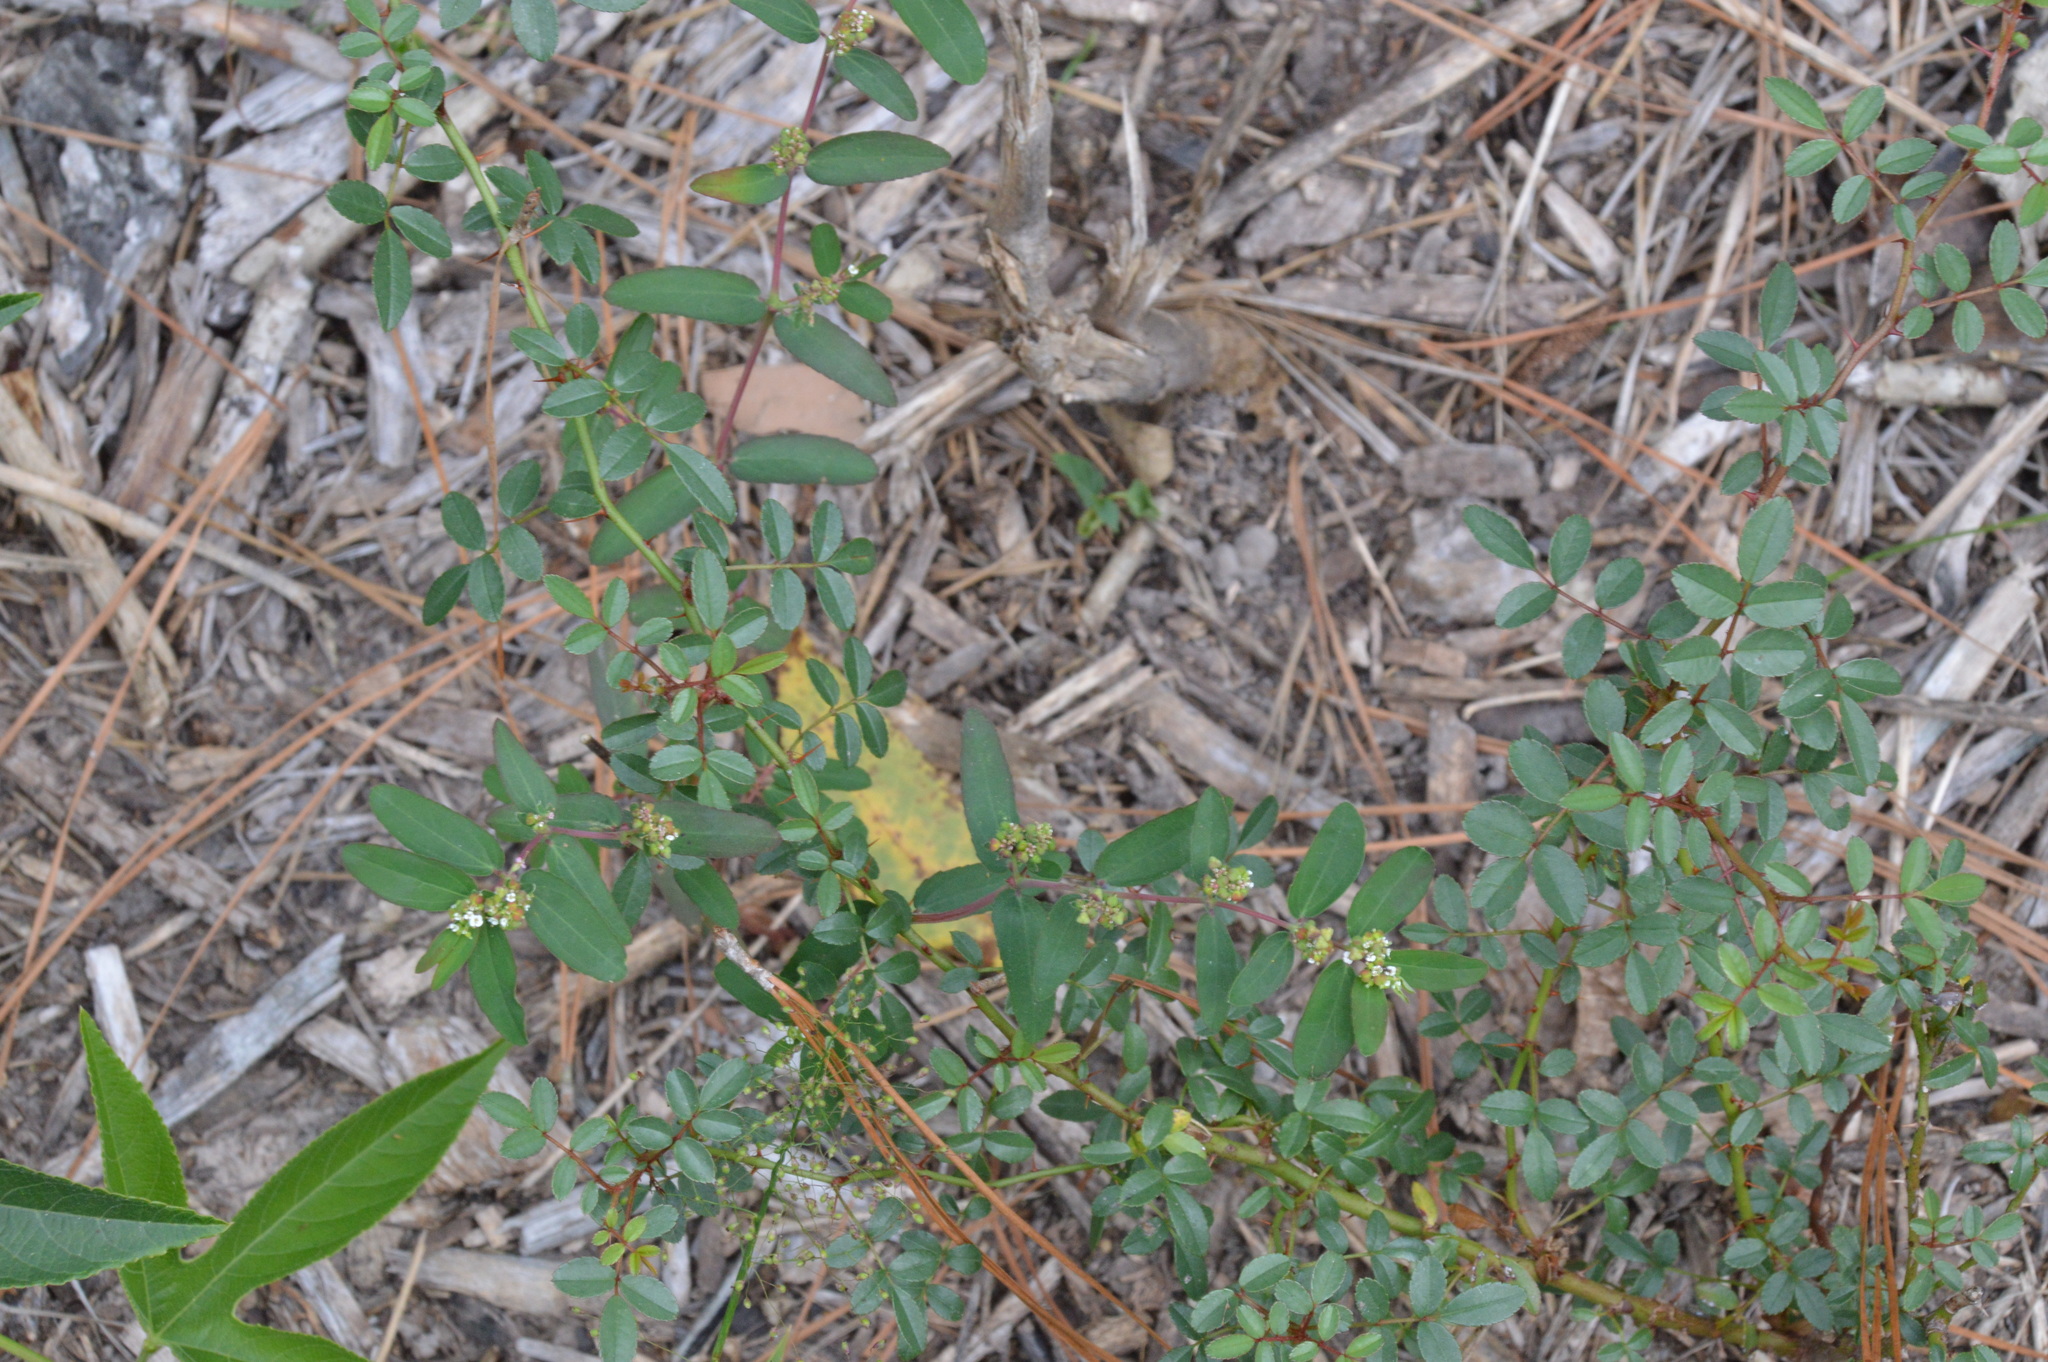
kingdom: Plantae
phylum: Tracheophyta
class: Magnoliopsida
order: Malpighiales
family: Euphorbiaceae
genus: Euphorbia
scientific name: Euphorbia hypericifolia
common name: Graceful sandmat
